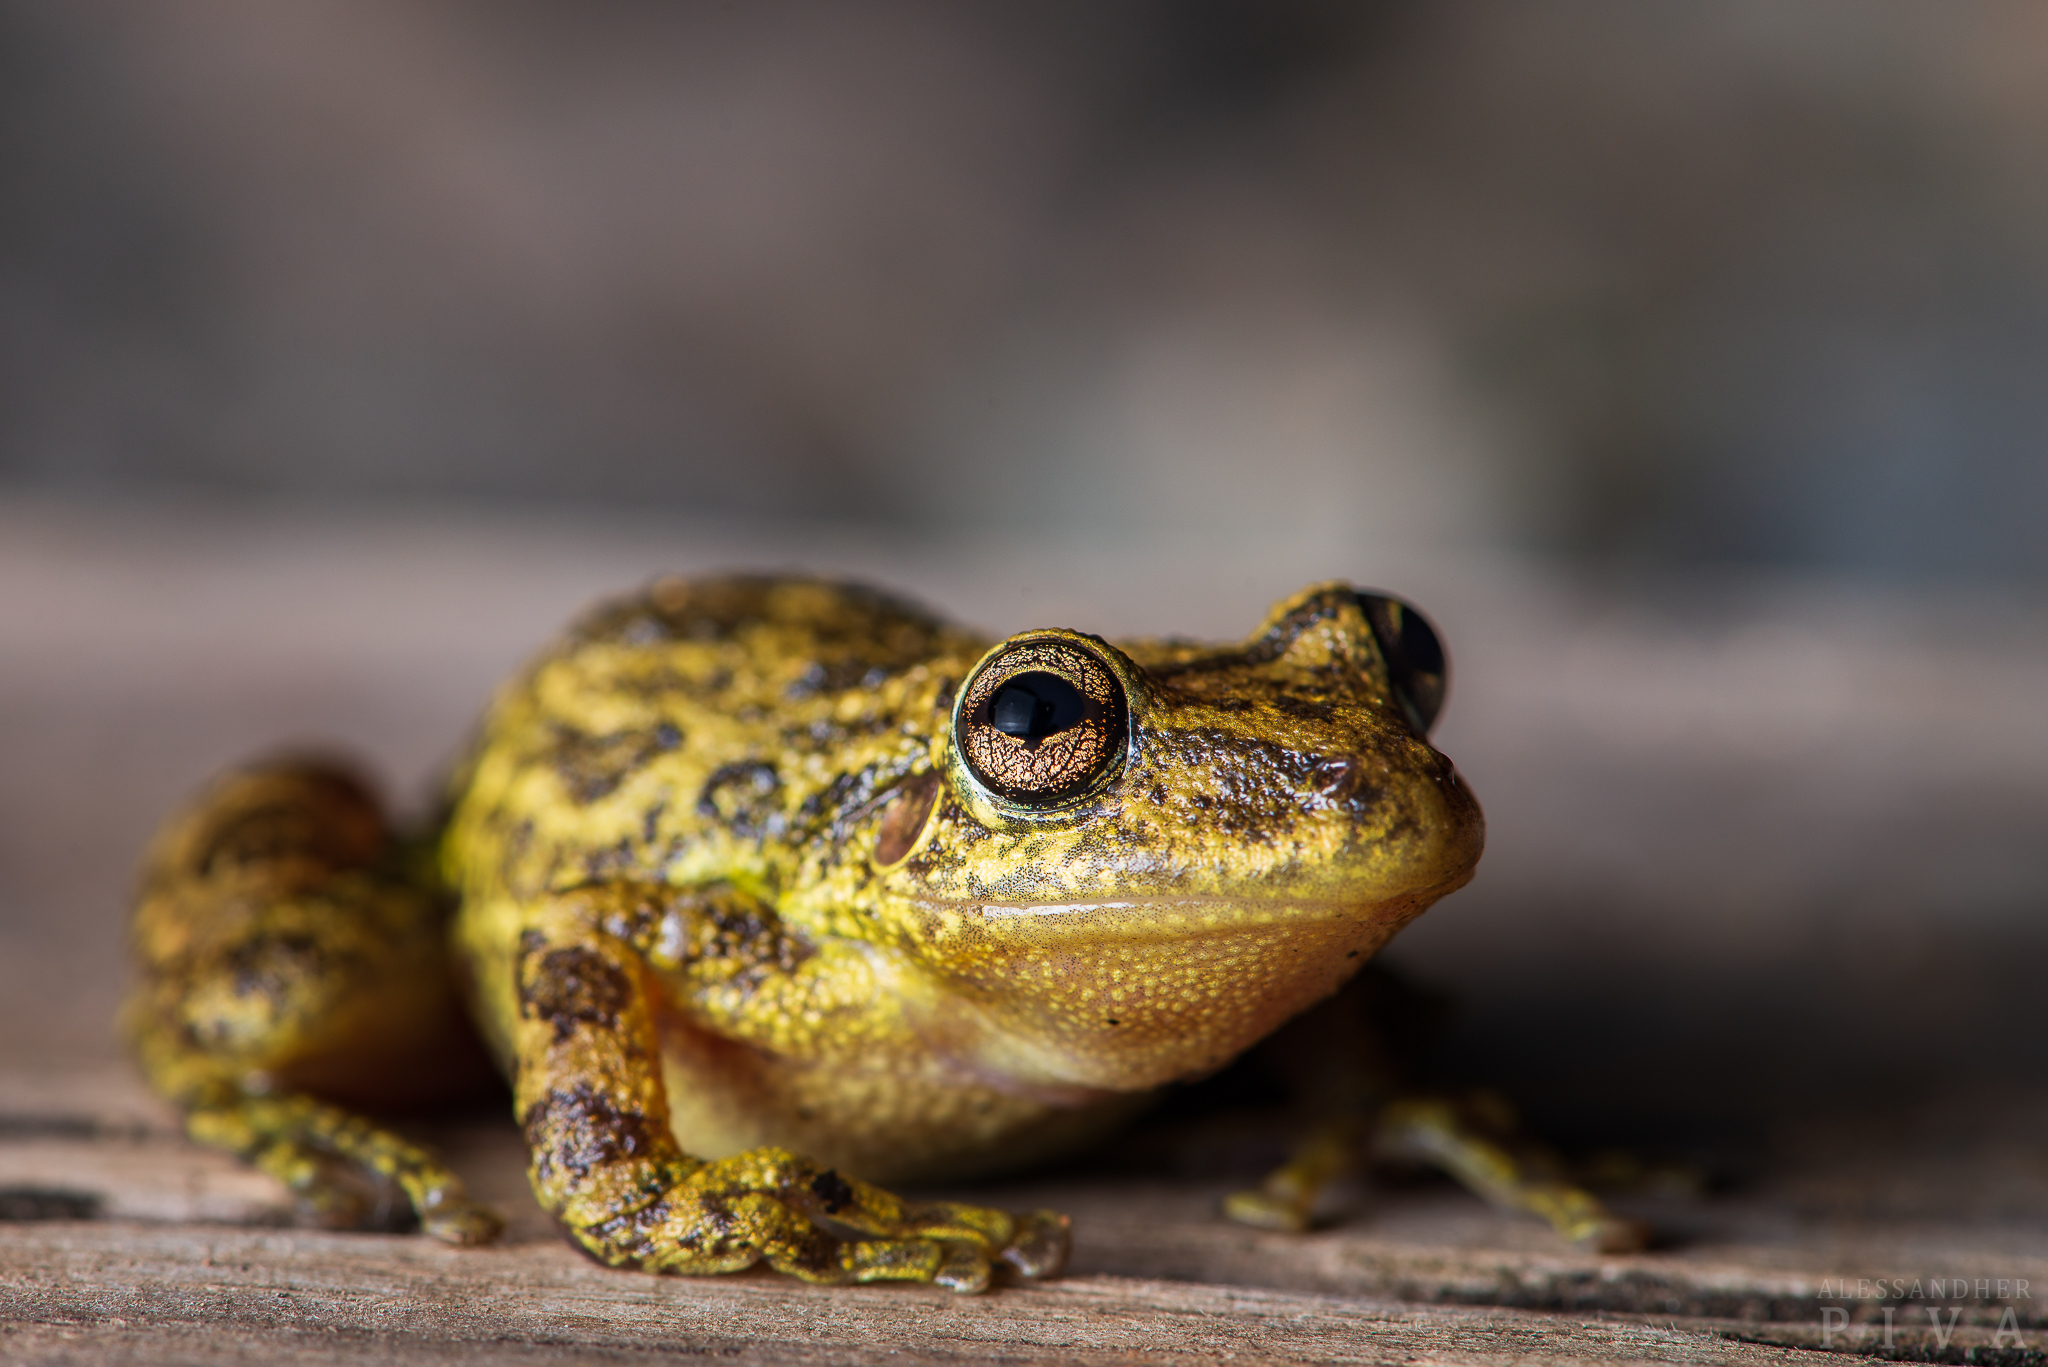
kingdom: Animalia
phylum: Chordata
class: Amphibia
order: Anura
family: Hylidae
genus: Scinax
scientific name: Scinax fuscovarius
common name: Fuscous-blotched treefrog
